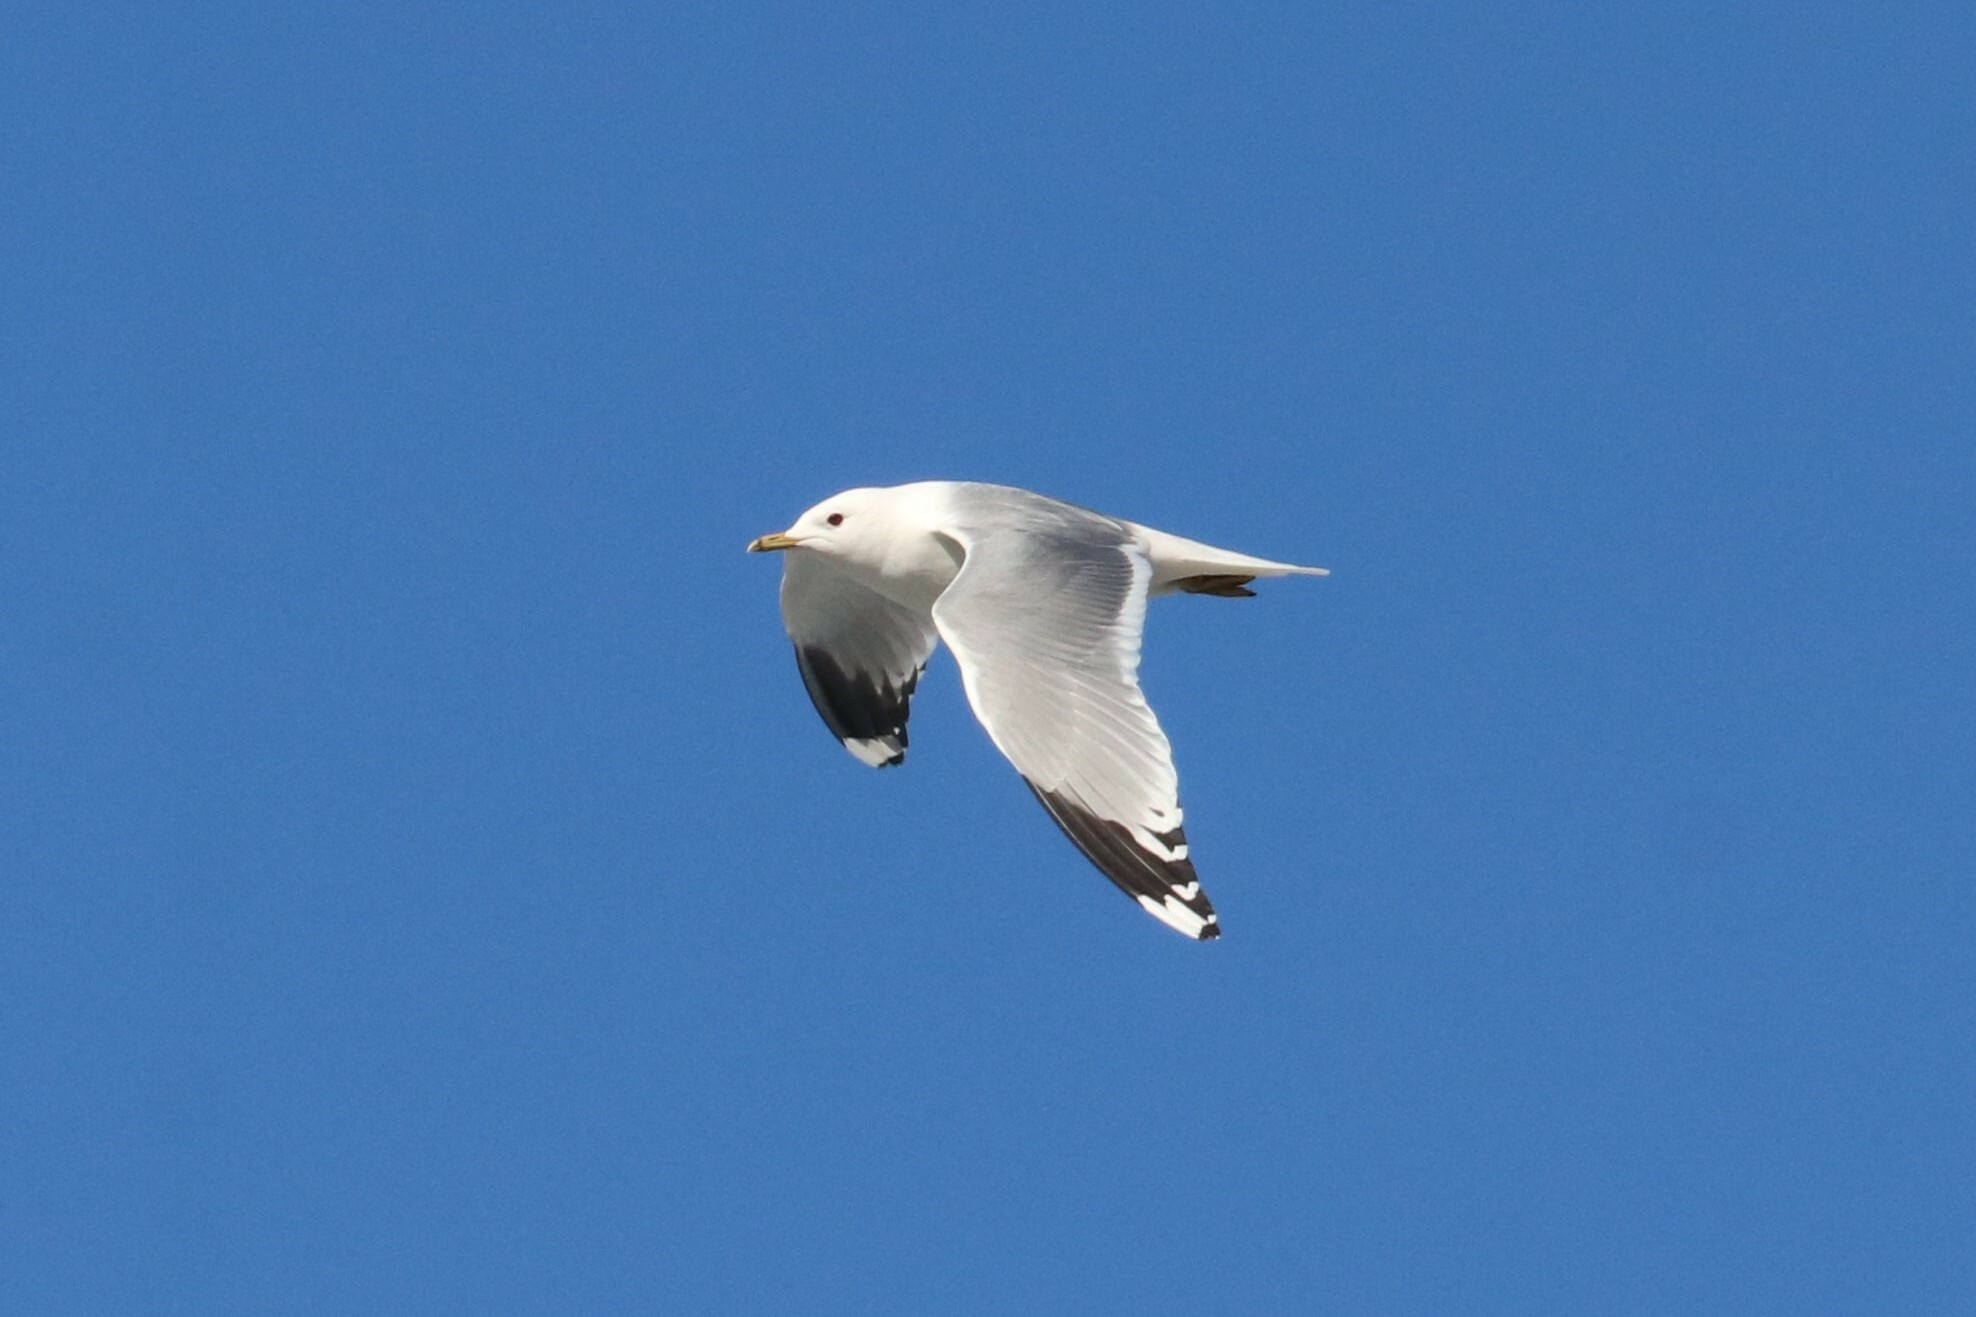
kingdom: Animalia
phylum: Chordata
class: Aves
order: Charadriiformes
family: Laridae
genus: Larus
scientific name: Larus canus
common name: Mew gull
